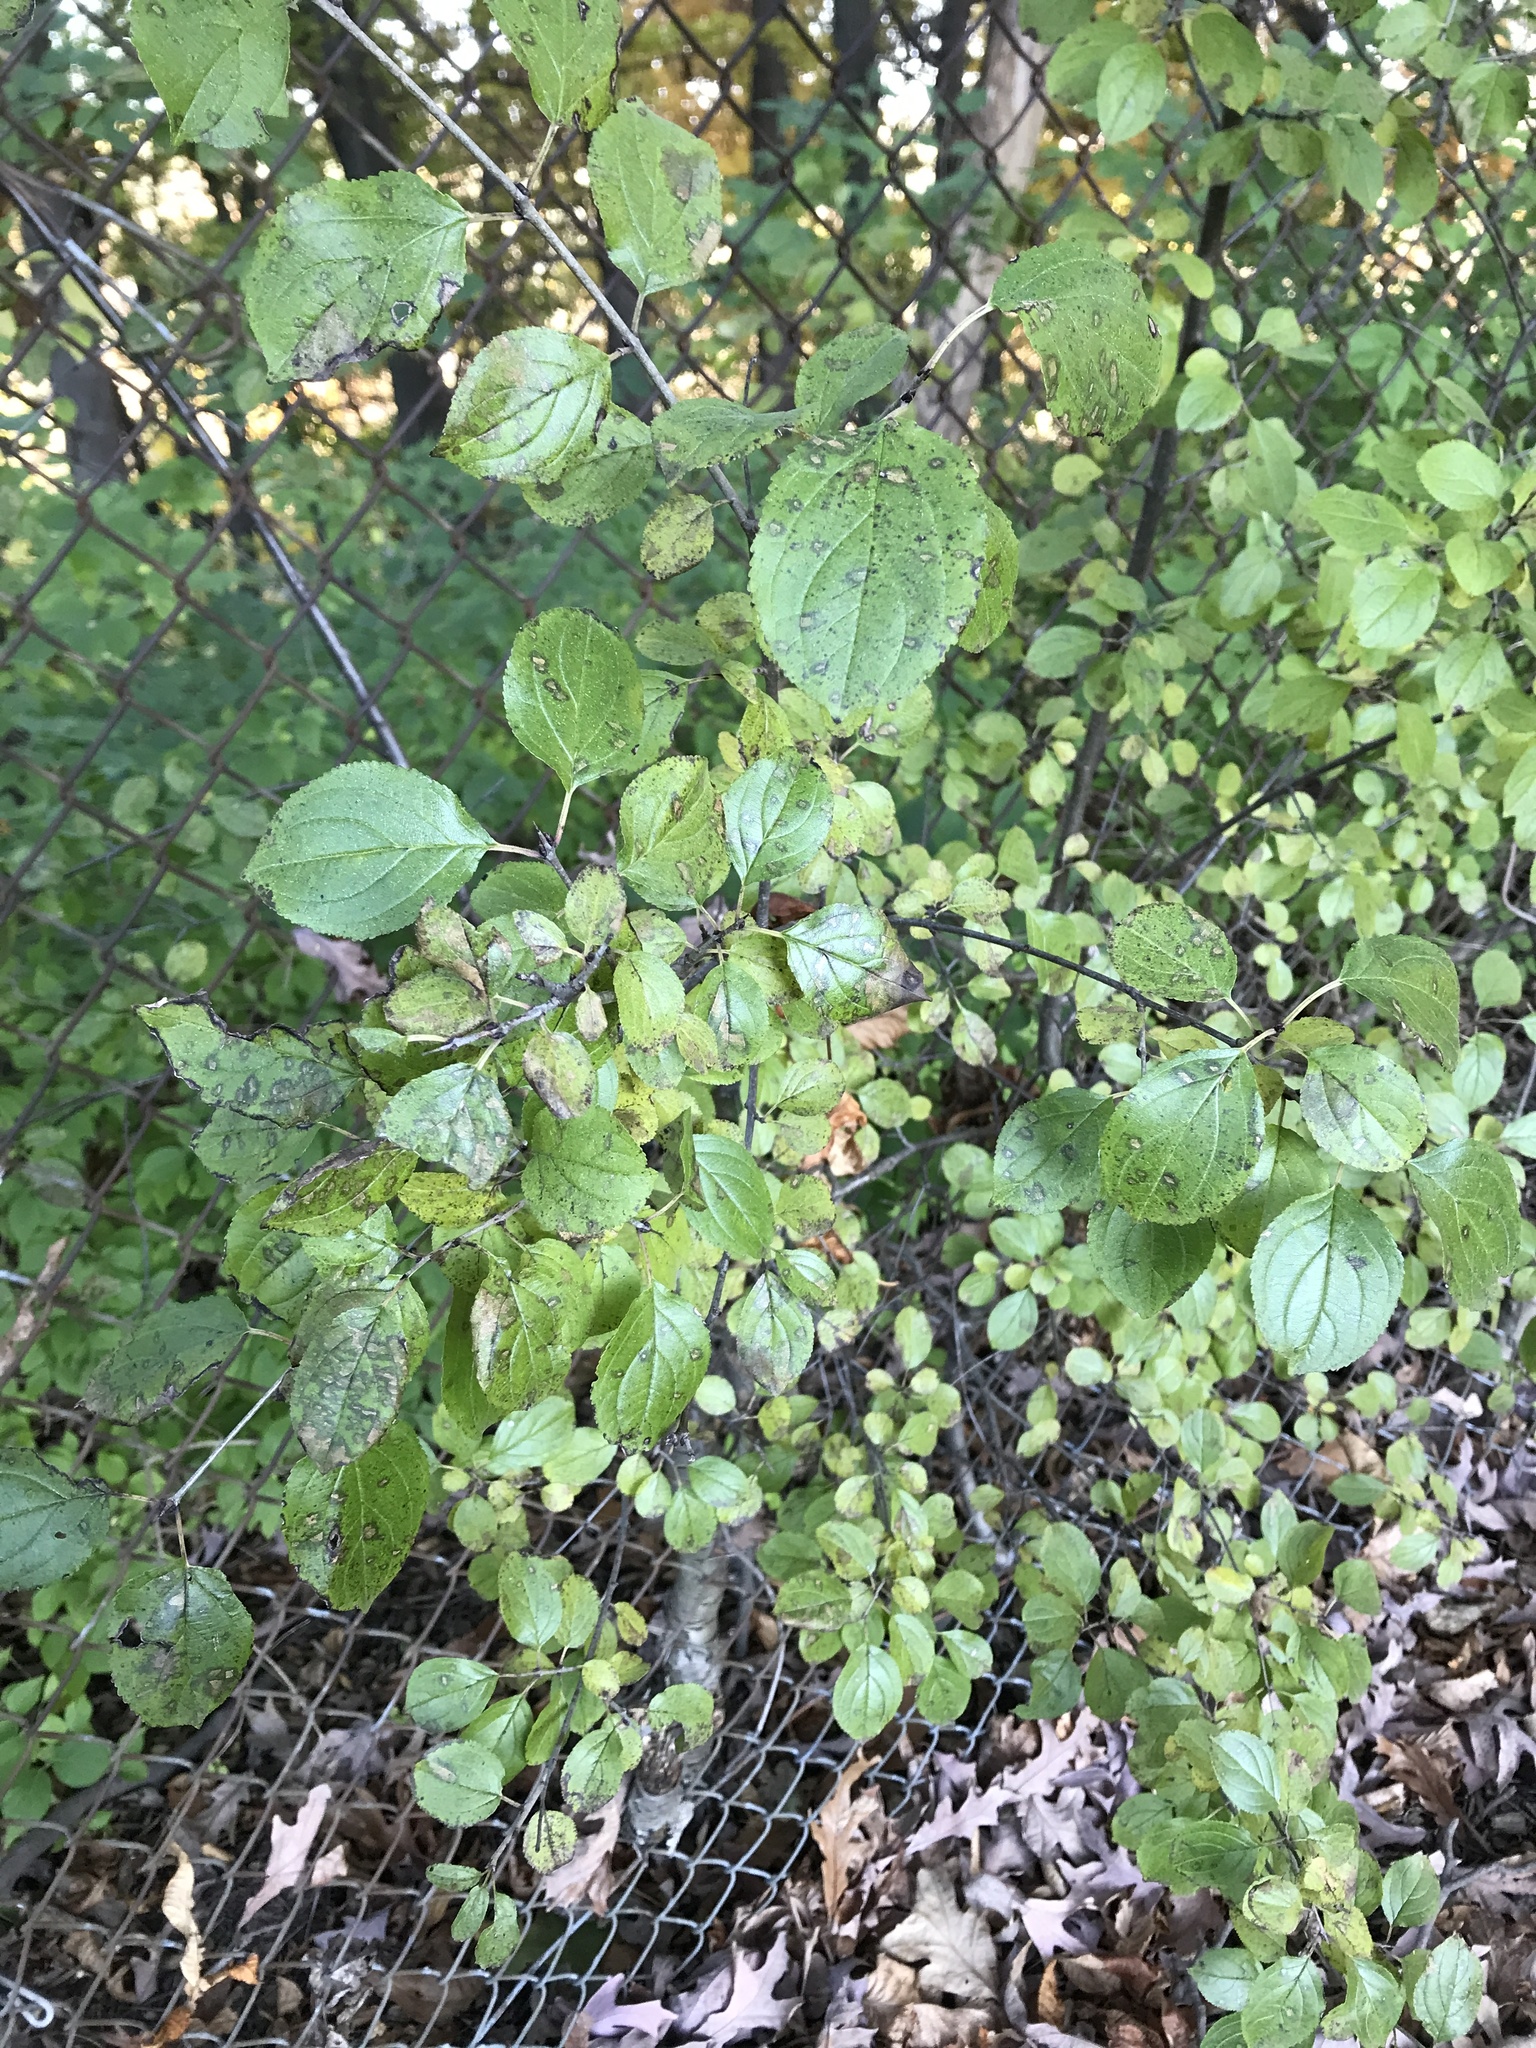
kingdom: Plantae
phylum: Tracheophyta
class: Magnoliopsida
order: Rosales
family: Rhamnaceae
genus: Rhamnus
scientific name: Rhamnus cathartica
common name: Common buckthorn
